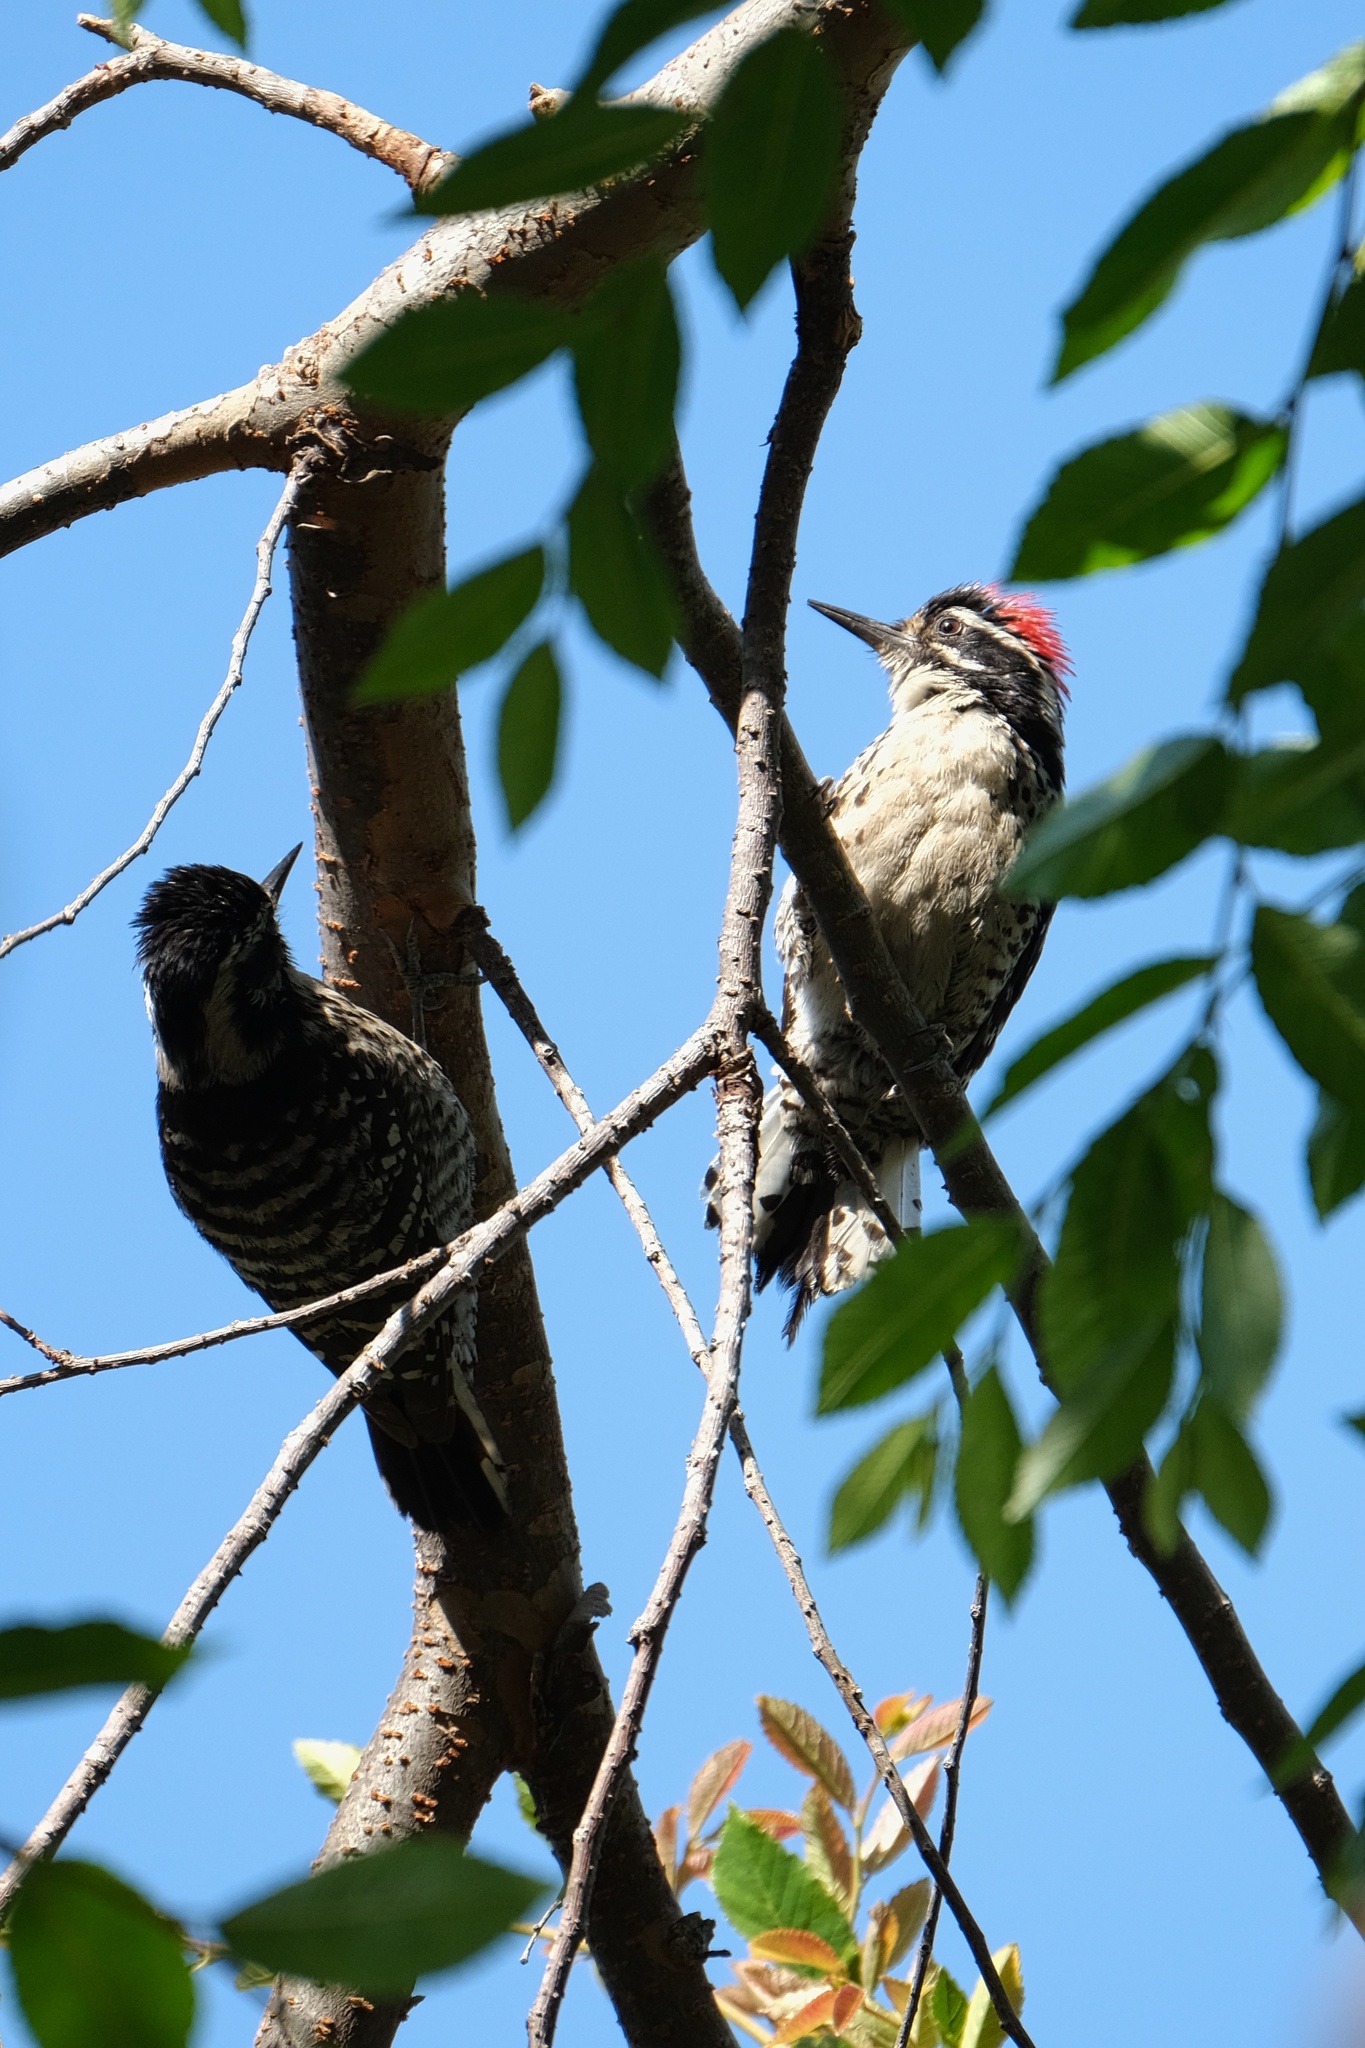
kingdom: Animalia
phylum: Chordata
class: Aves
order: Piciformes
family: Picidae
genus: Dryobates
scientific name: Dryobates nuttallii
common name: Nuttall's woodpecker
